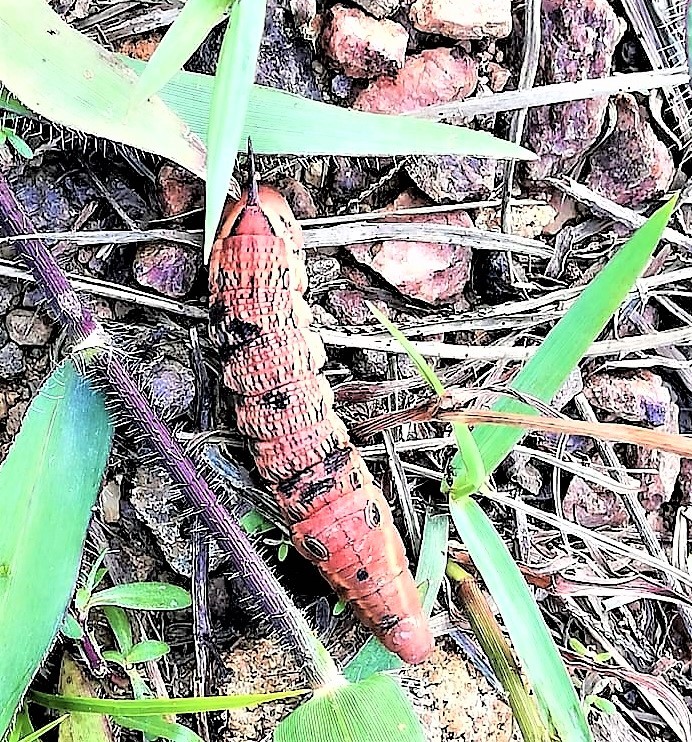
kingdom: Animalia
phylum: Arthropoda
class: Insecta
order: Lepidoptera
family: Sphingidae
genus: Xylophanes
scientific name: Xylophanes tersa
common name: Tersa sphinx
